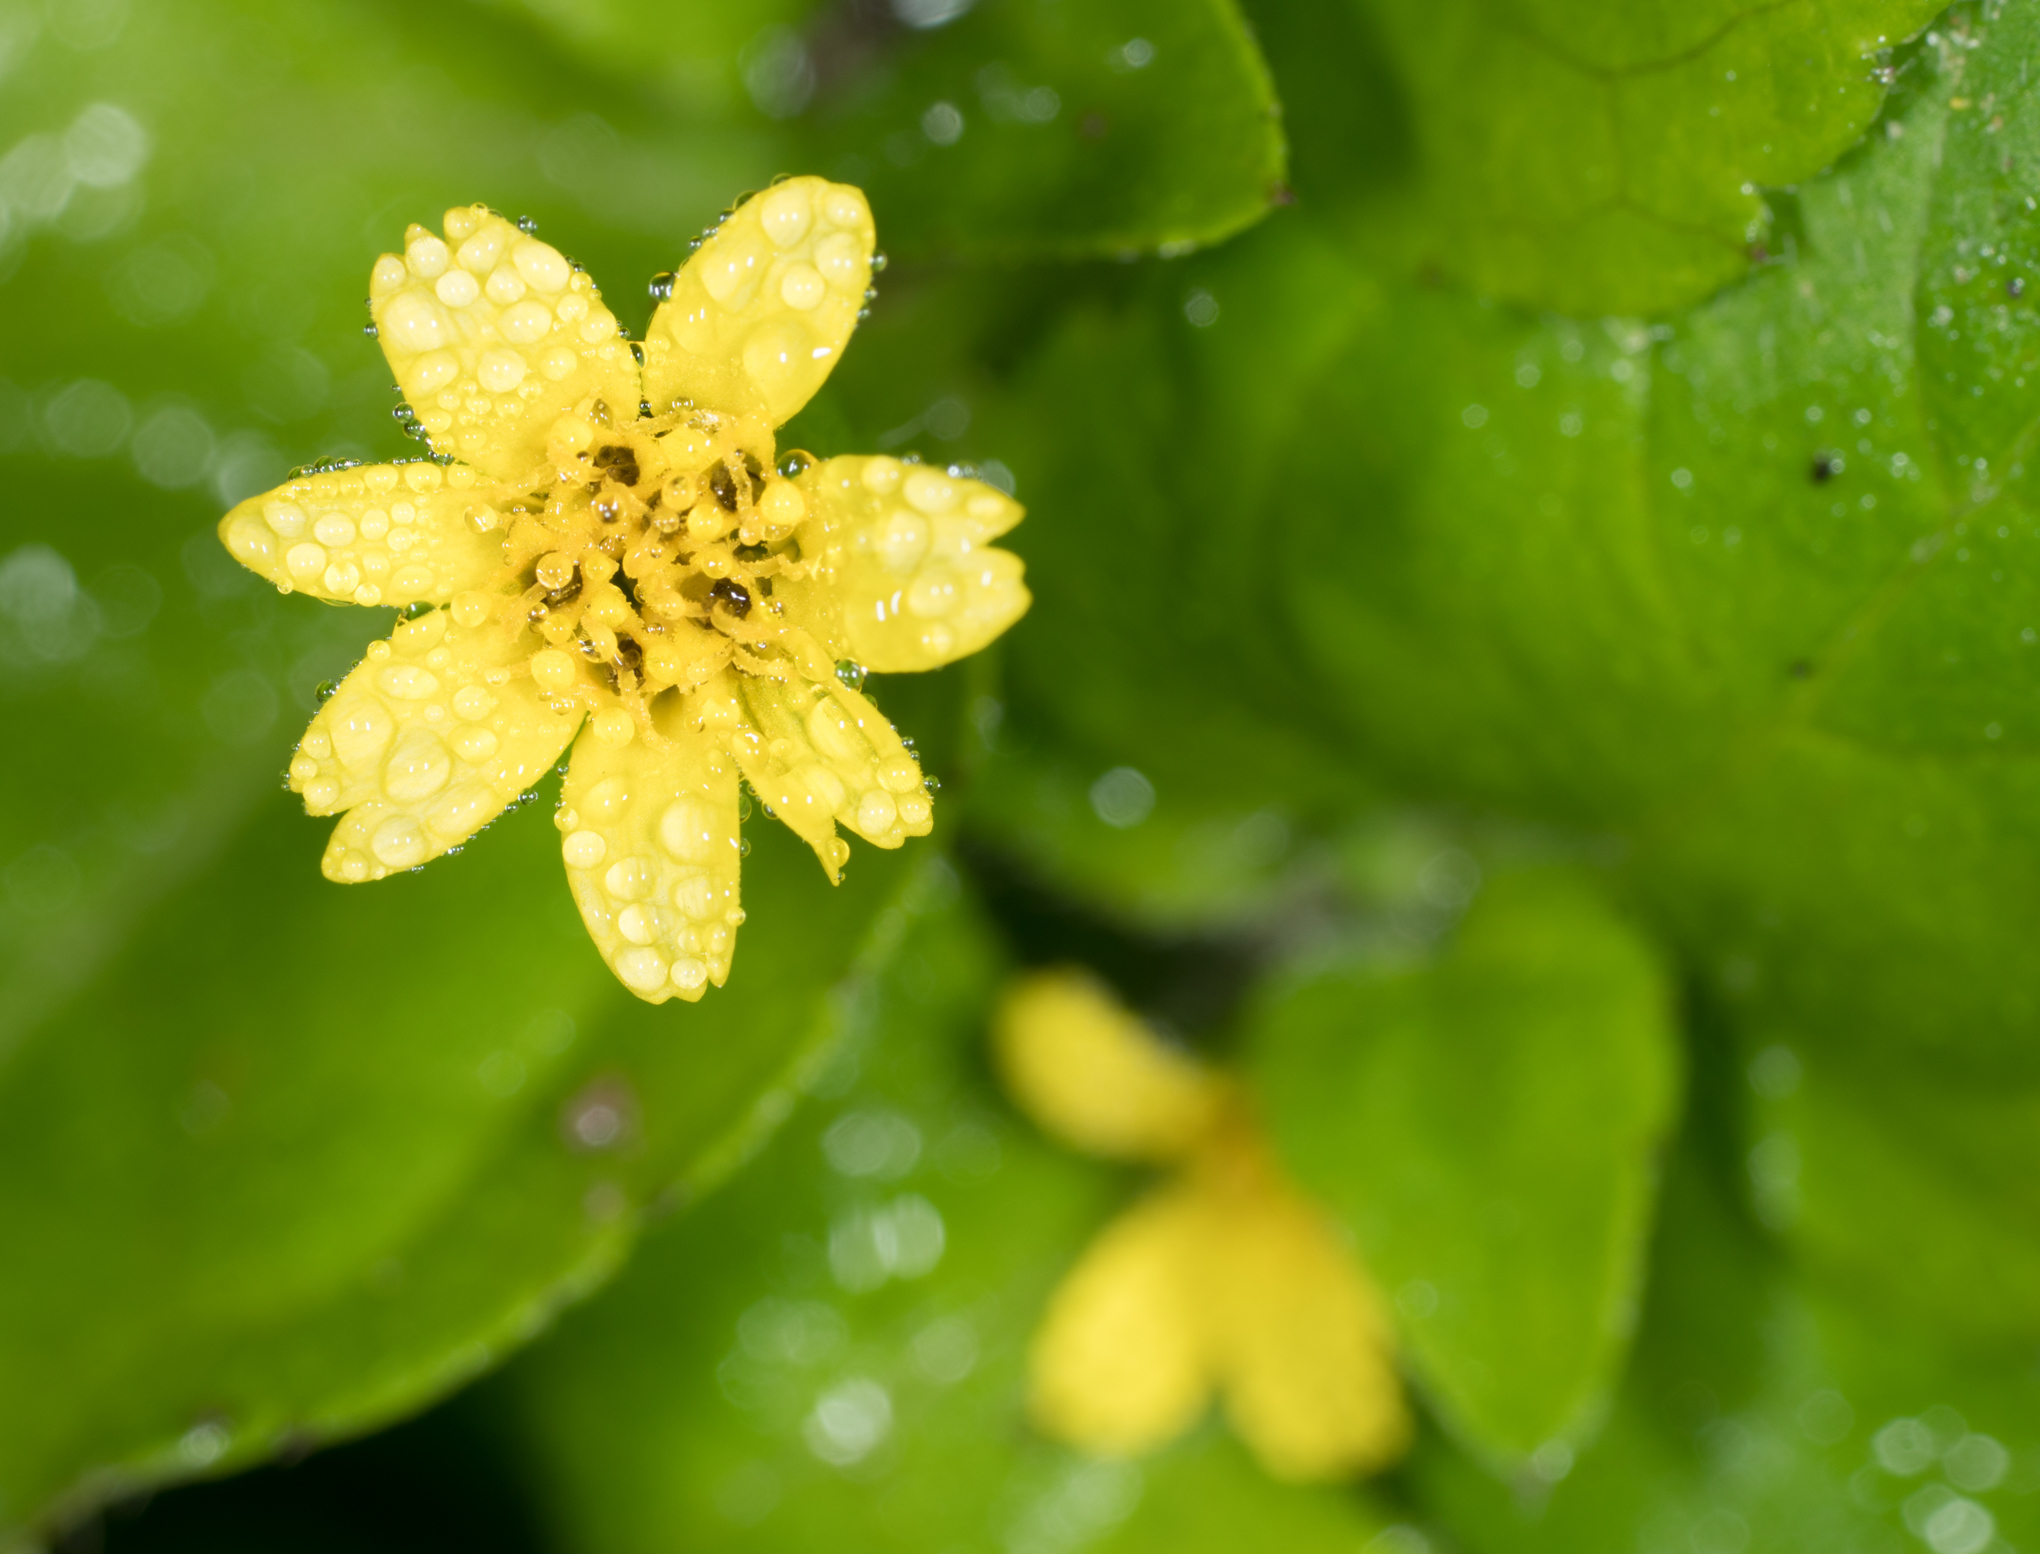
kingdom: Plantae
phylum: Tracheophyta
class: Magnoliopsida
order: Asterales
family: Asteraceae
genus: Calyptocarpus
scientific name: Calyptocarpus vialis
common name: Straggler daisy
